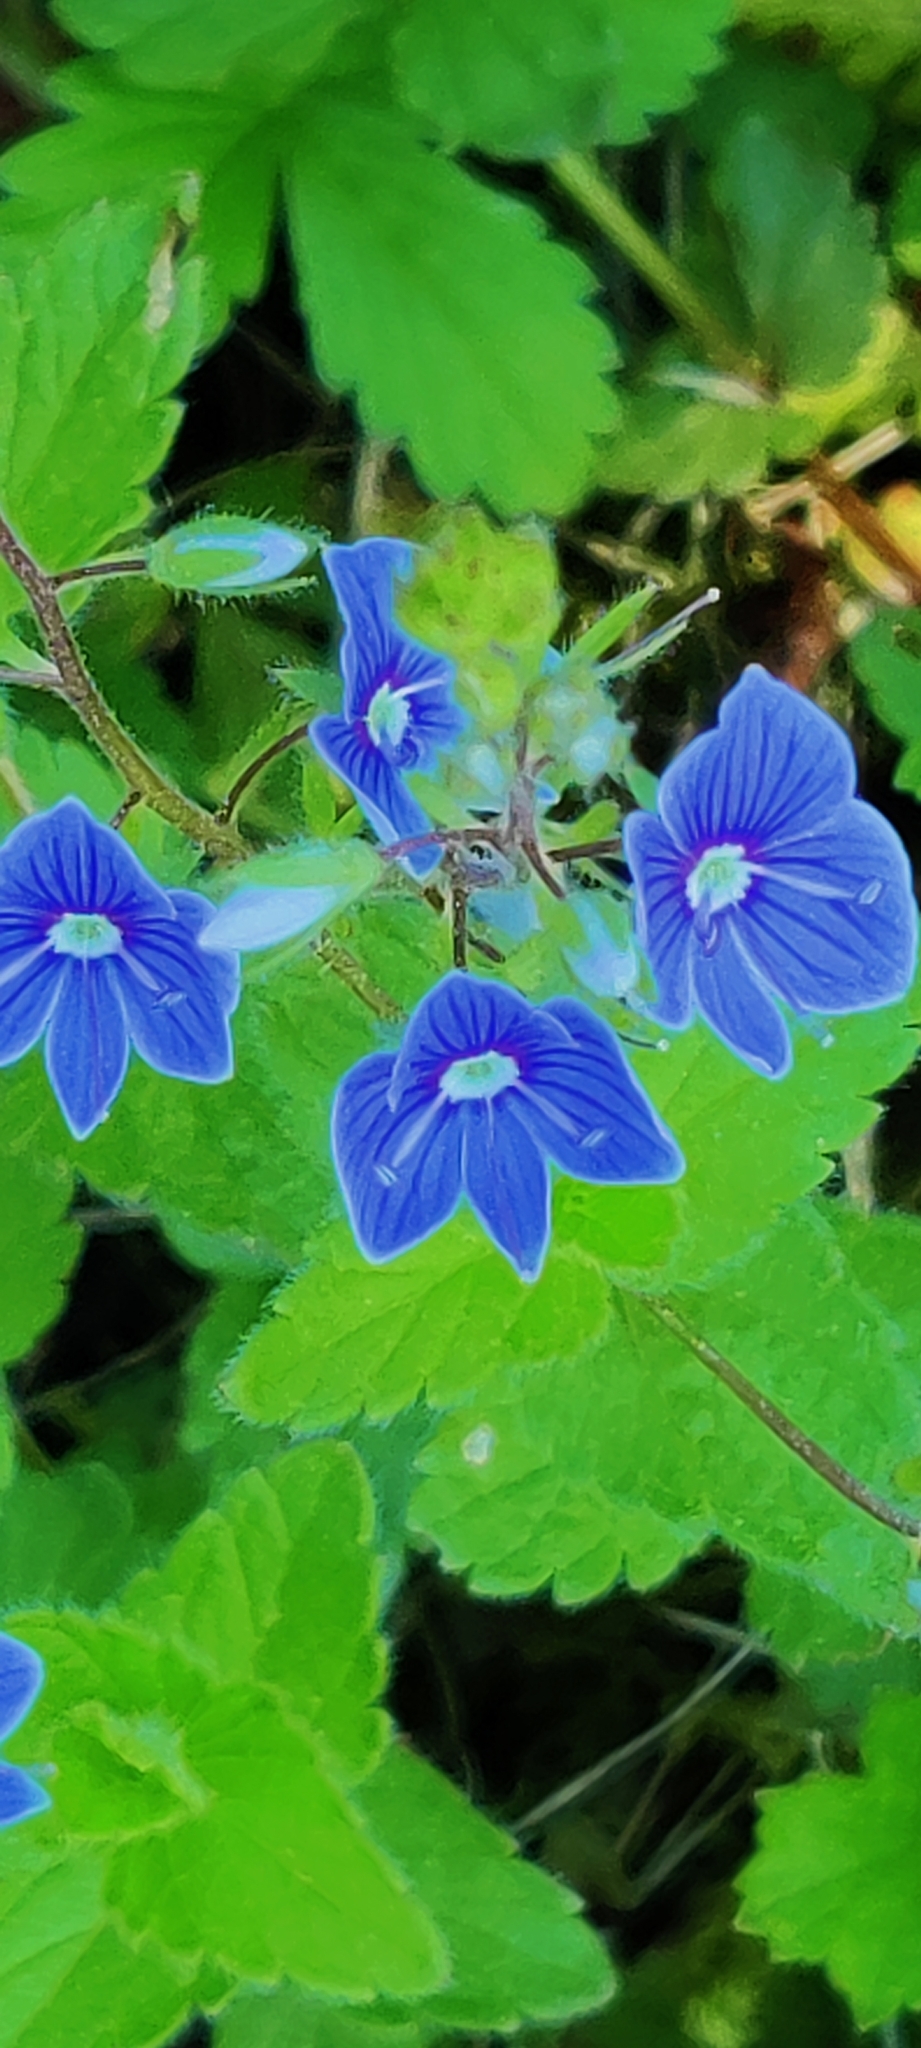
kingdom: Plantae
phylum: Tracheophyta
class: Magnoliopsida
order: Lamiales
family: Plantaginaceae
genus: Veronica
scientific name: Veronica chamaedrys
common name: Germander speedwell
